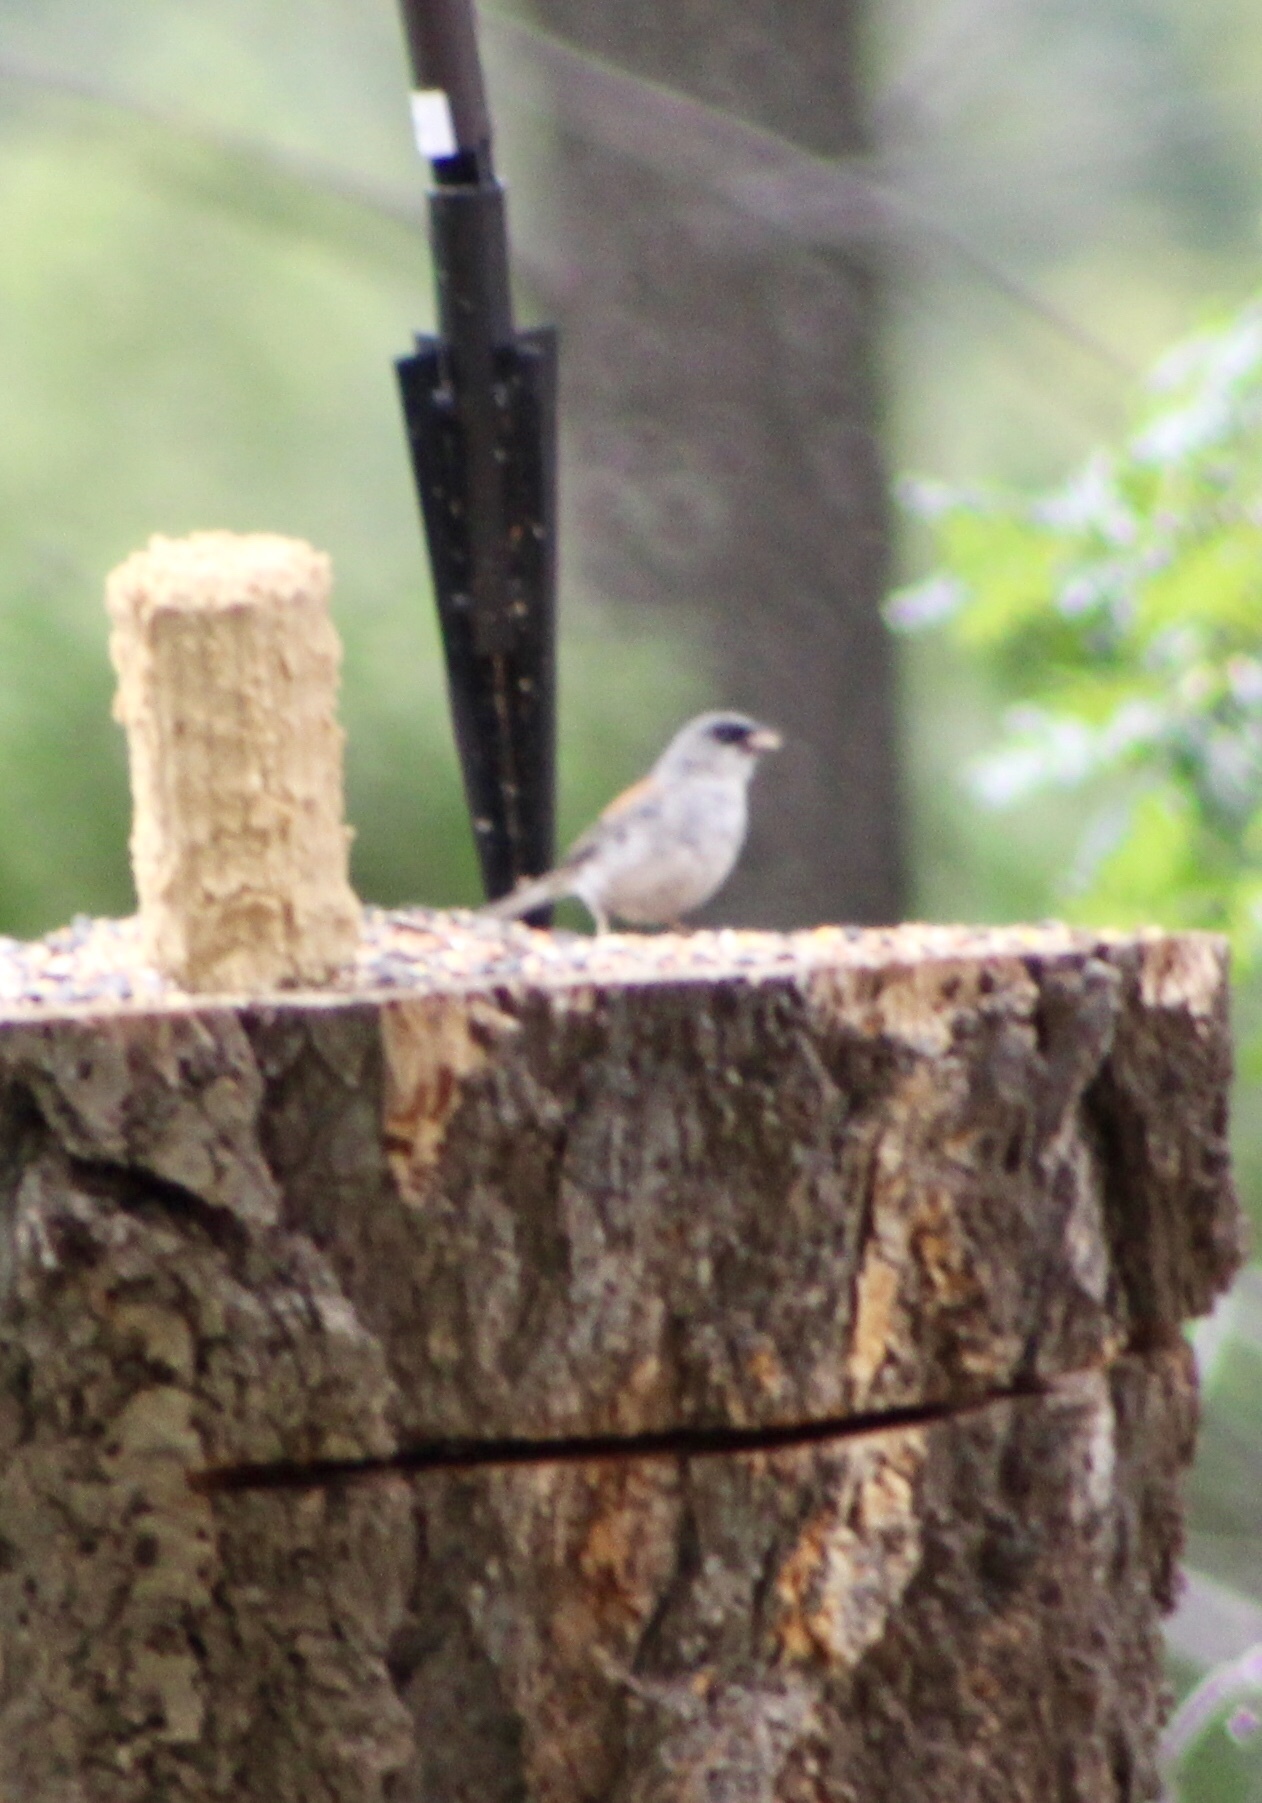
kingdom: Animalia
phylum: Chordata
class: Aves
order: Passeriformes
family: Passerellidae
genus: Junco
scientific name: Junco hyemalis
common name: Dark-eyed junco
